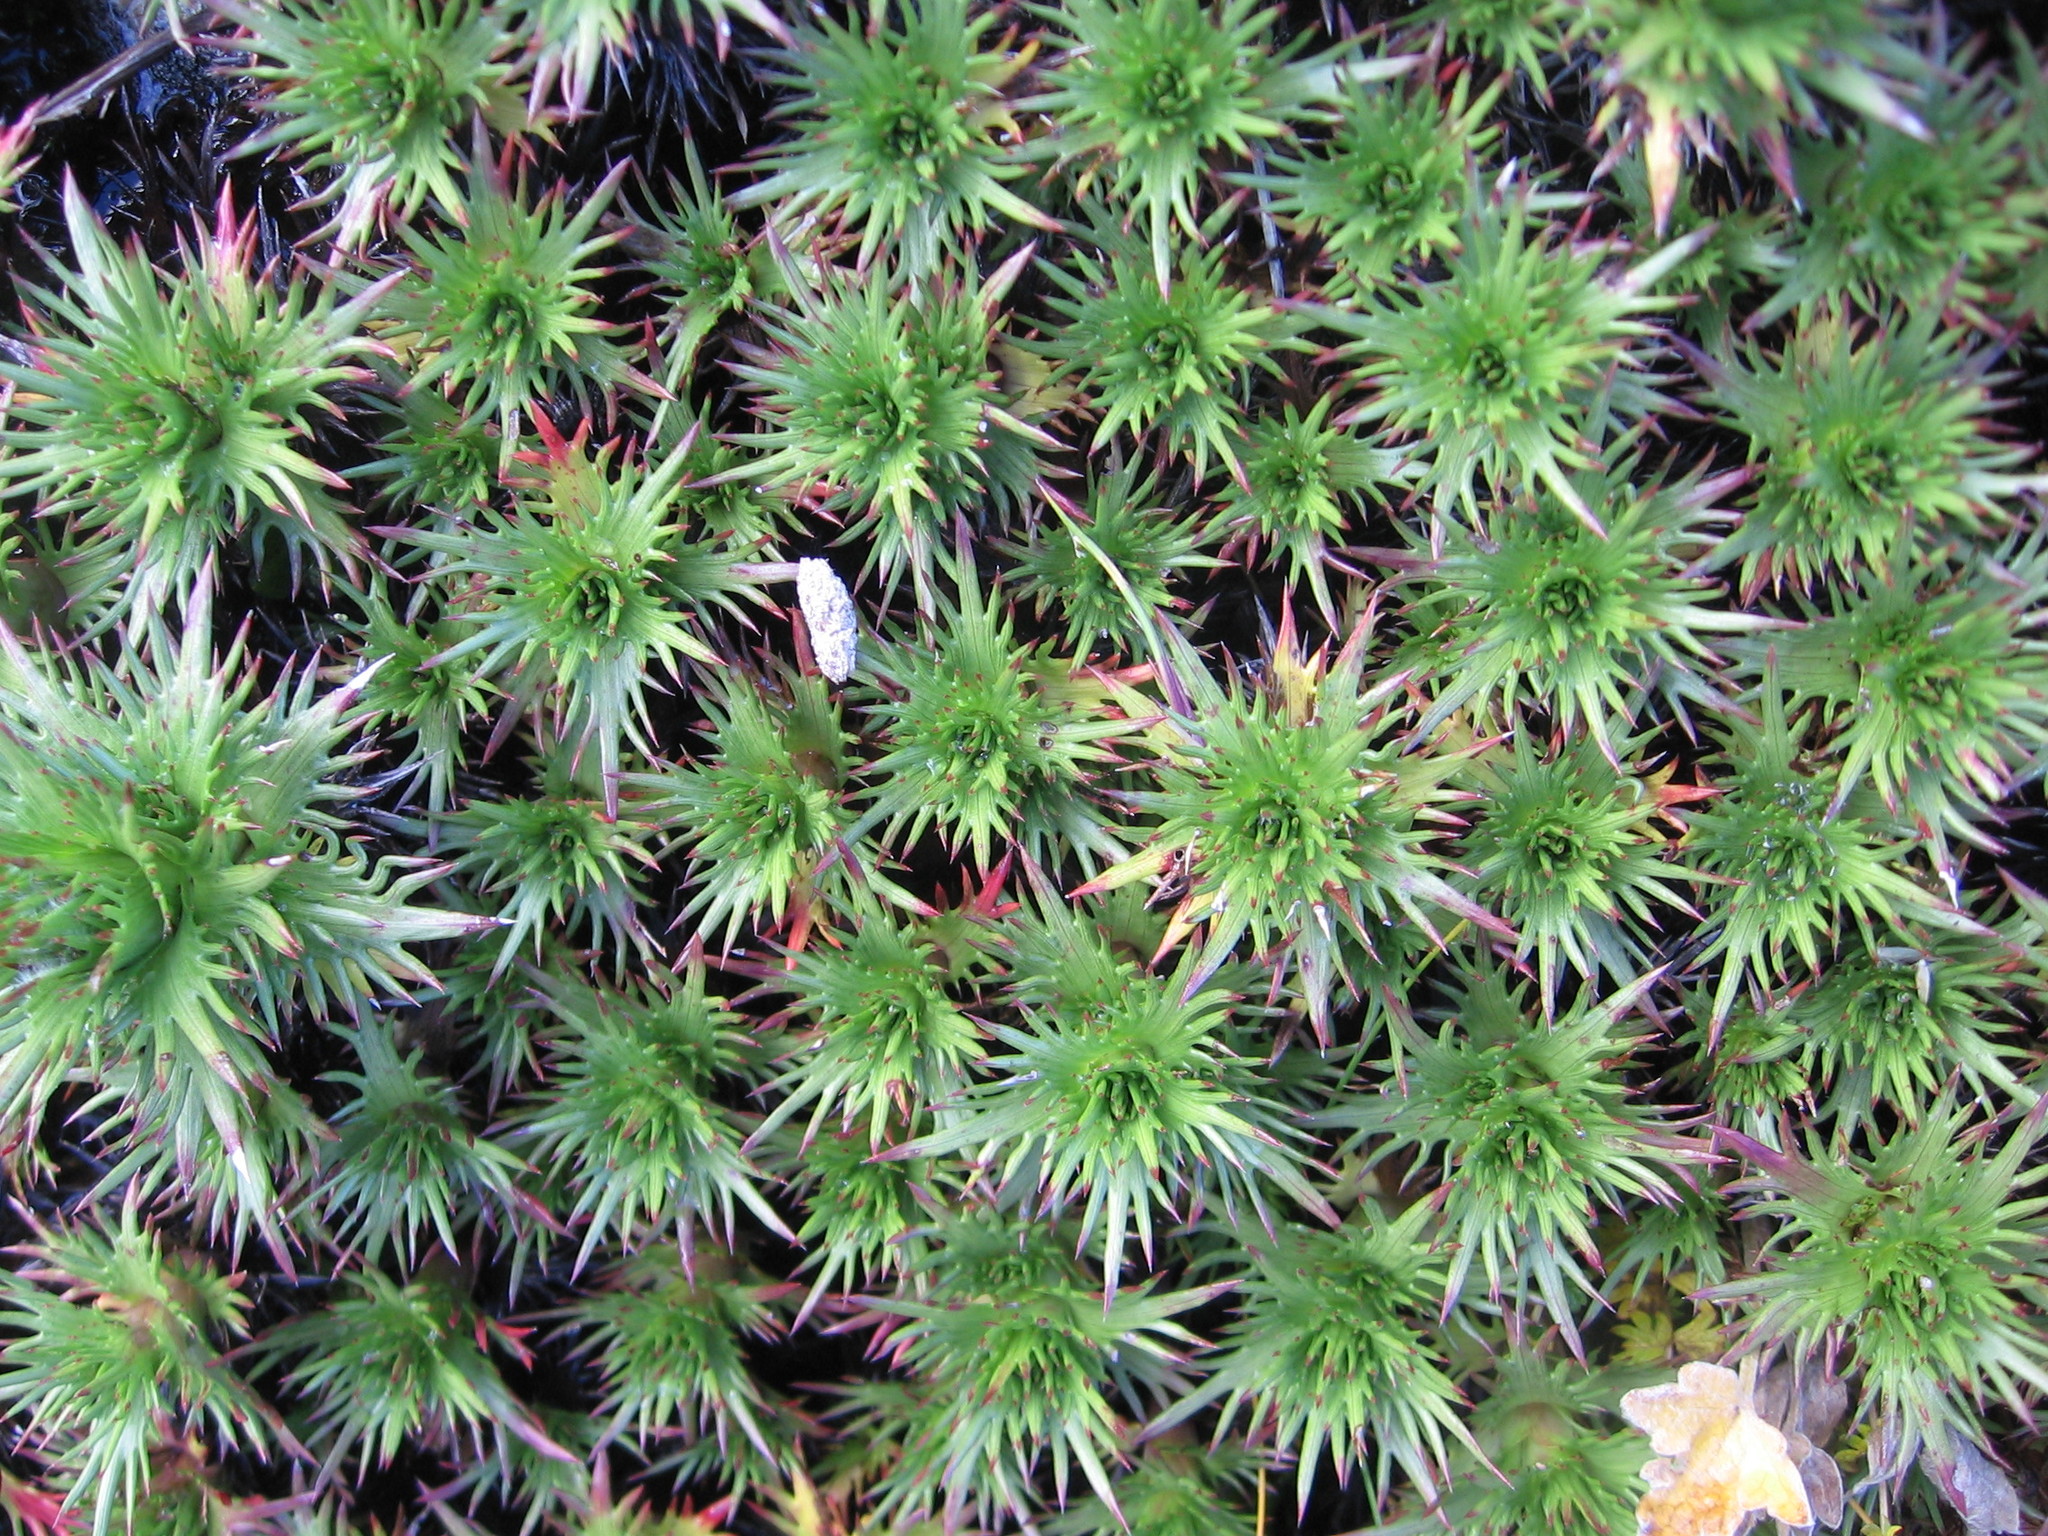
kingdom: Plantae
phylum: Tracheophyta
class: Magnoliopsida
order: Asterales
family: Asteraceae
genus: Nassauvia
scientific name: Nassauvia magellanica
